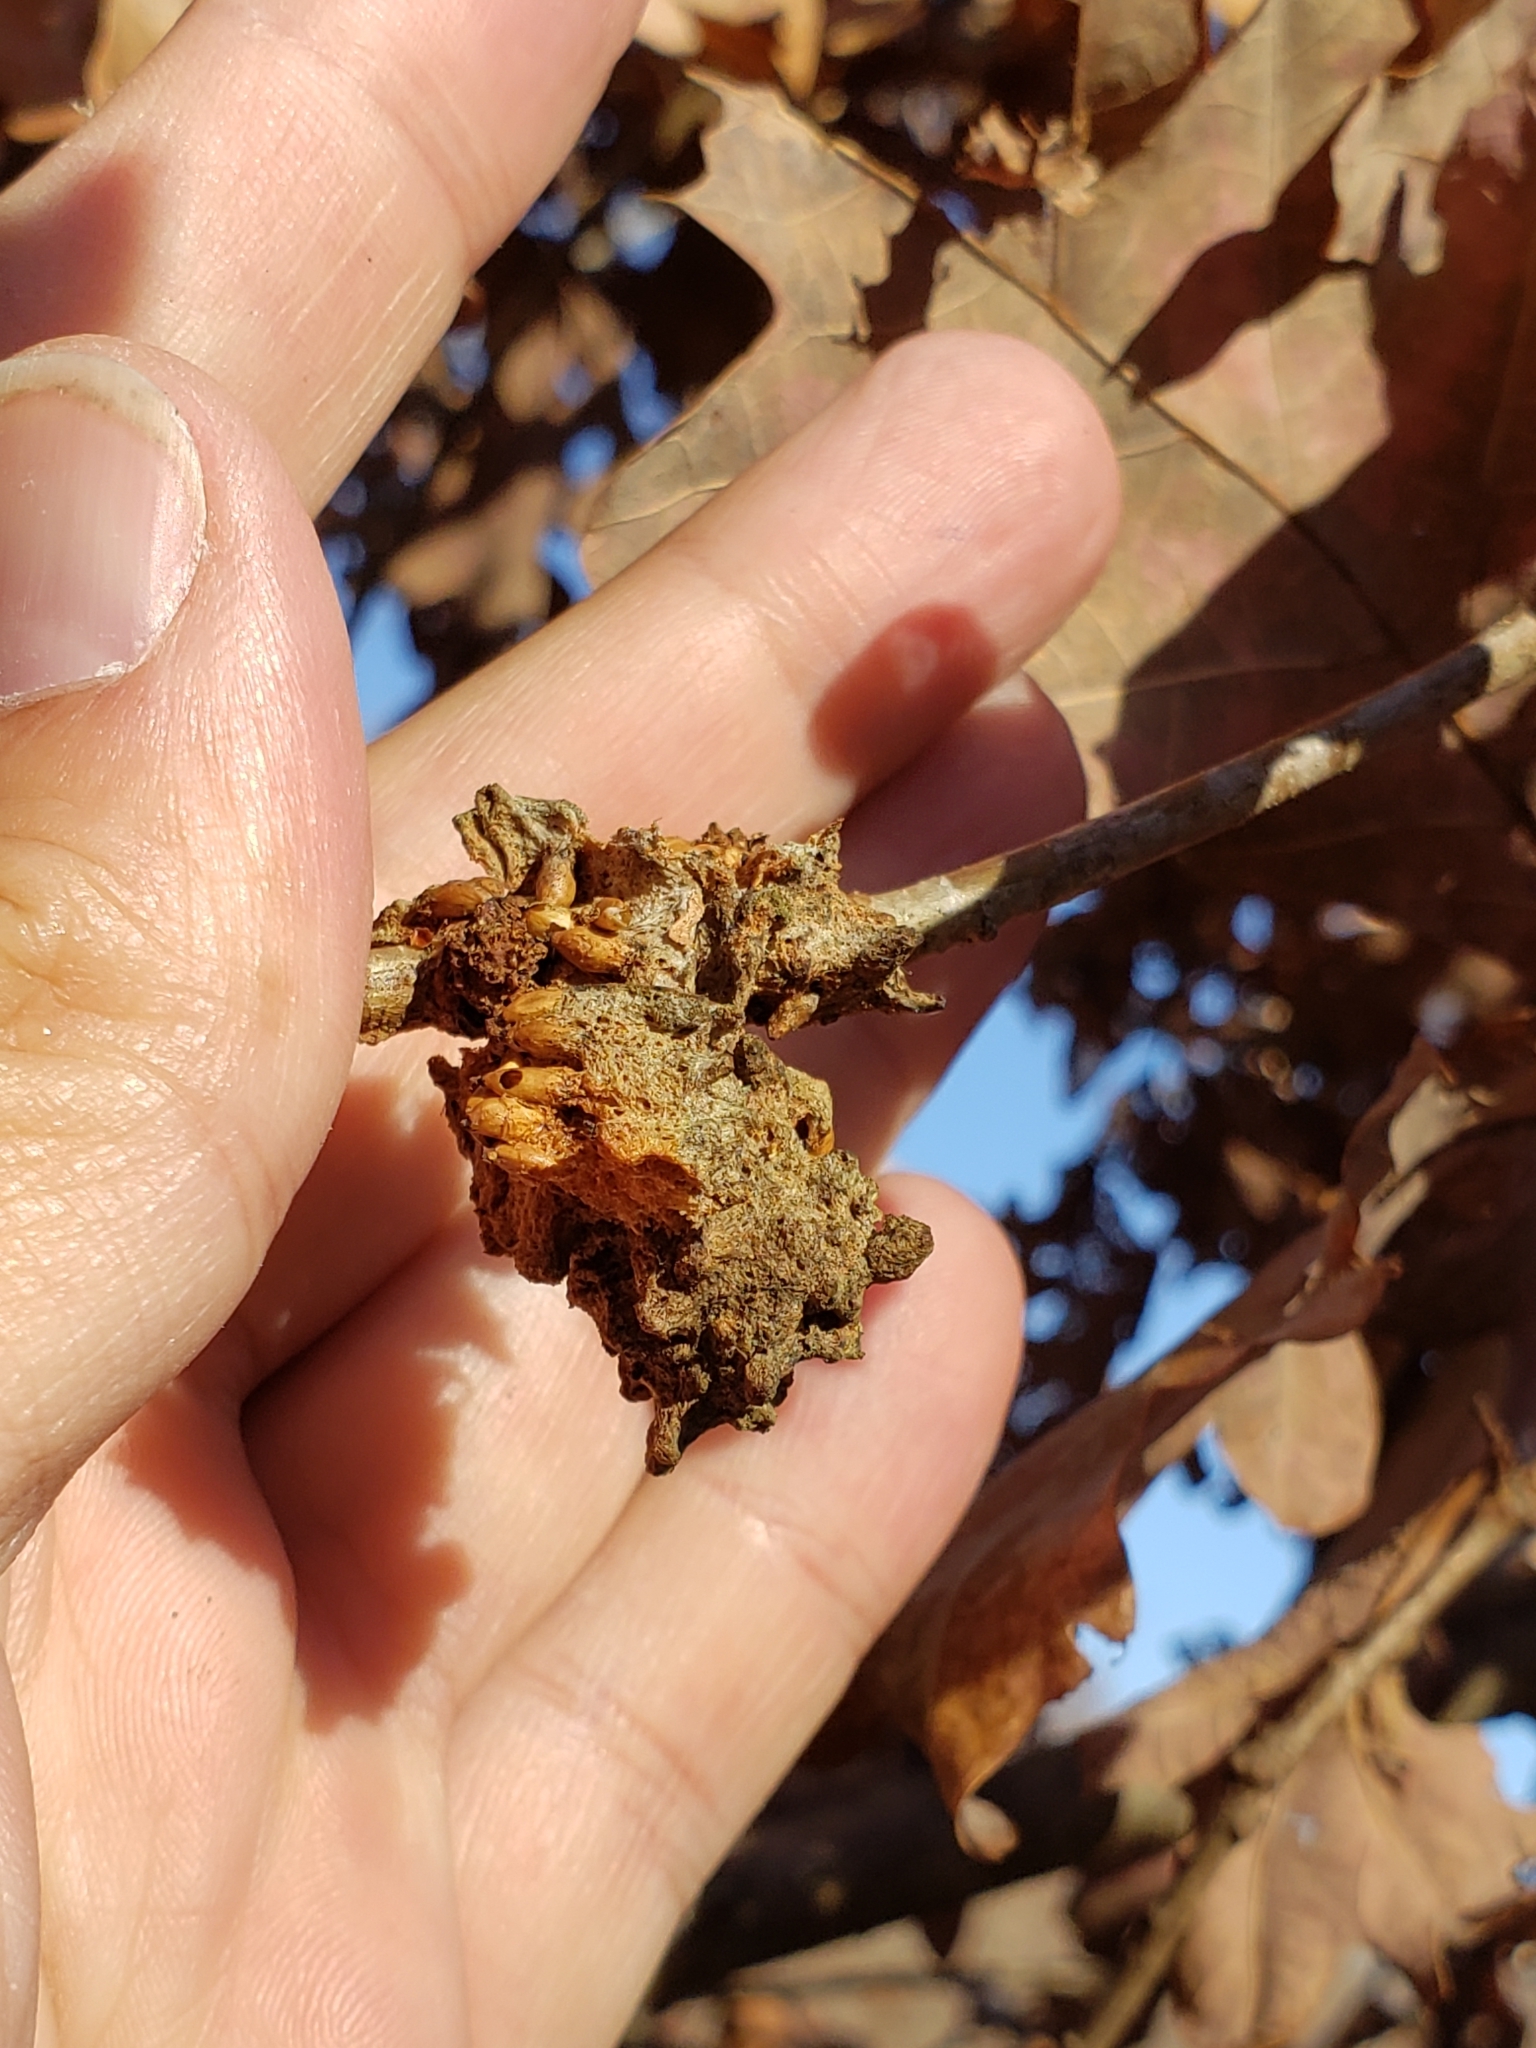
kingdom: Animalia
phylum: Arthropoda
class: Insecta
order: Hymenoptera
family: Cynipidae
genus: Callirhytis
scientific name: Callirhytis
